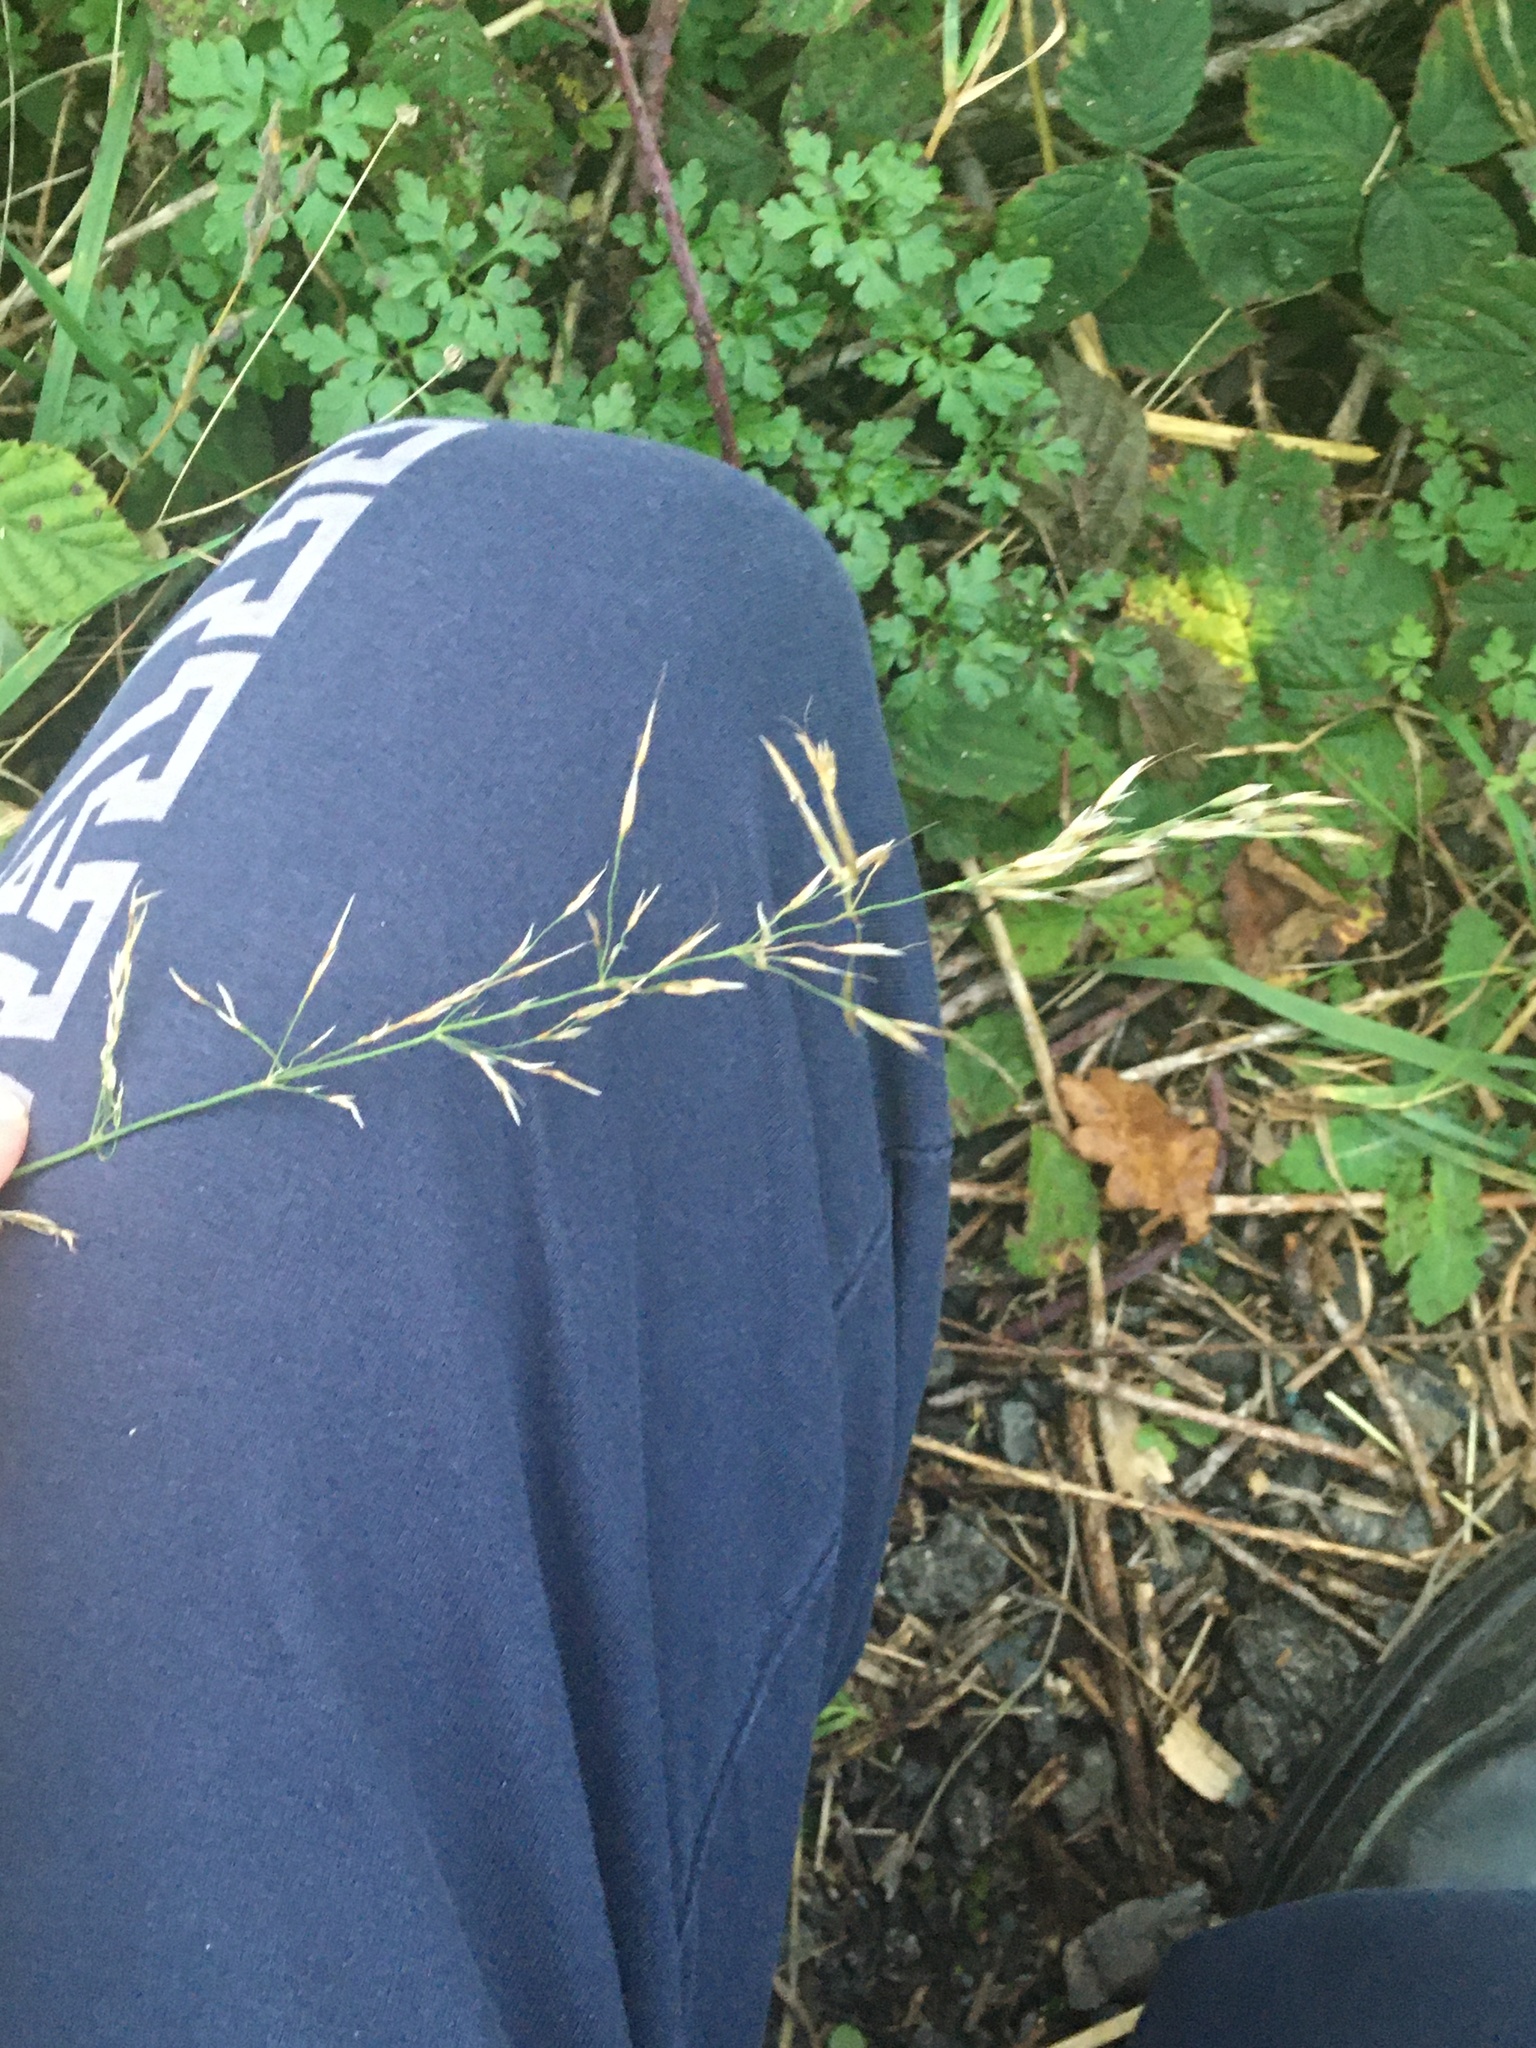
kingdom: Plantae
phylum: Tracheophyta
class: Liliopsida
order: Poales
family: Poaceae
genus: Arrhenatherum
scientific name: Arrhenatherum elatius
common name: Tall oatgrass
